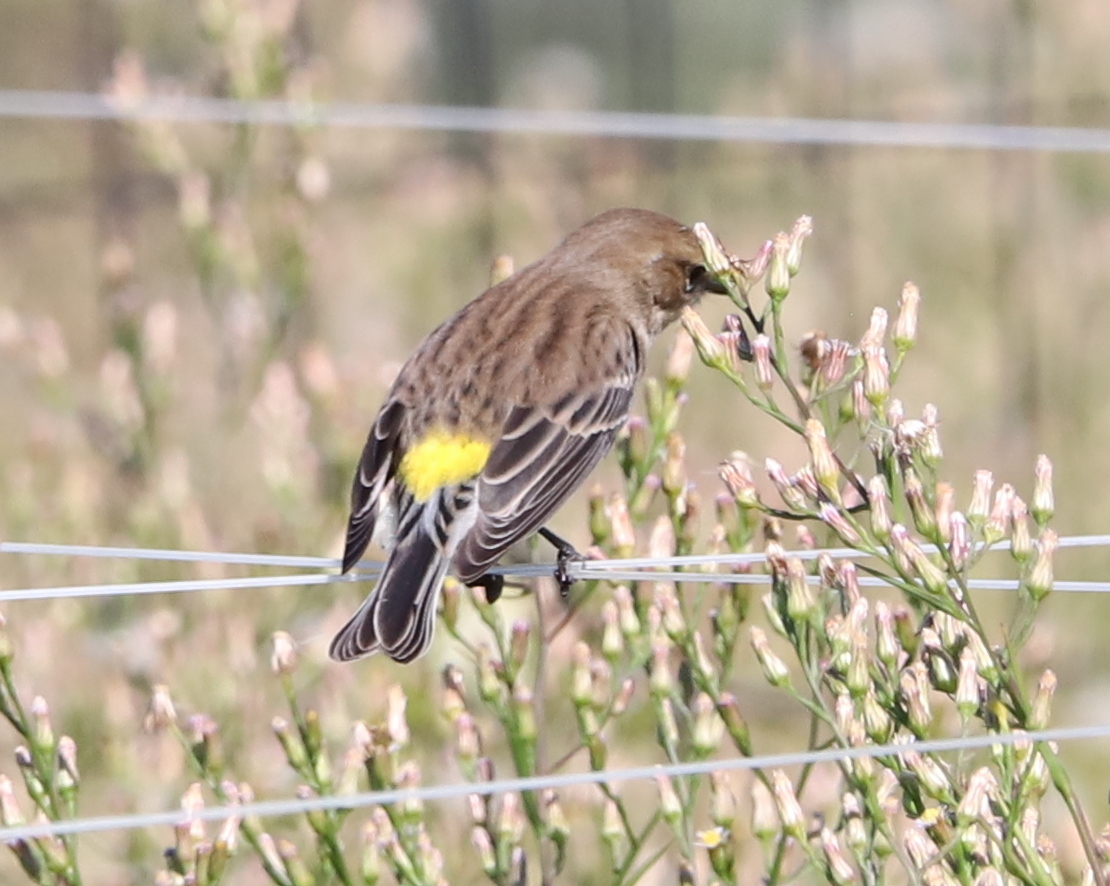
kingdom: Animalia
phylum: Chordata
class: Aves
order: Passeriformes
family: Parulidae
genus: Setophaga
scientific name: Setophaga coronata
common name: Myrtle warbler
